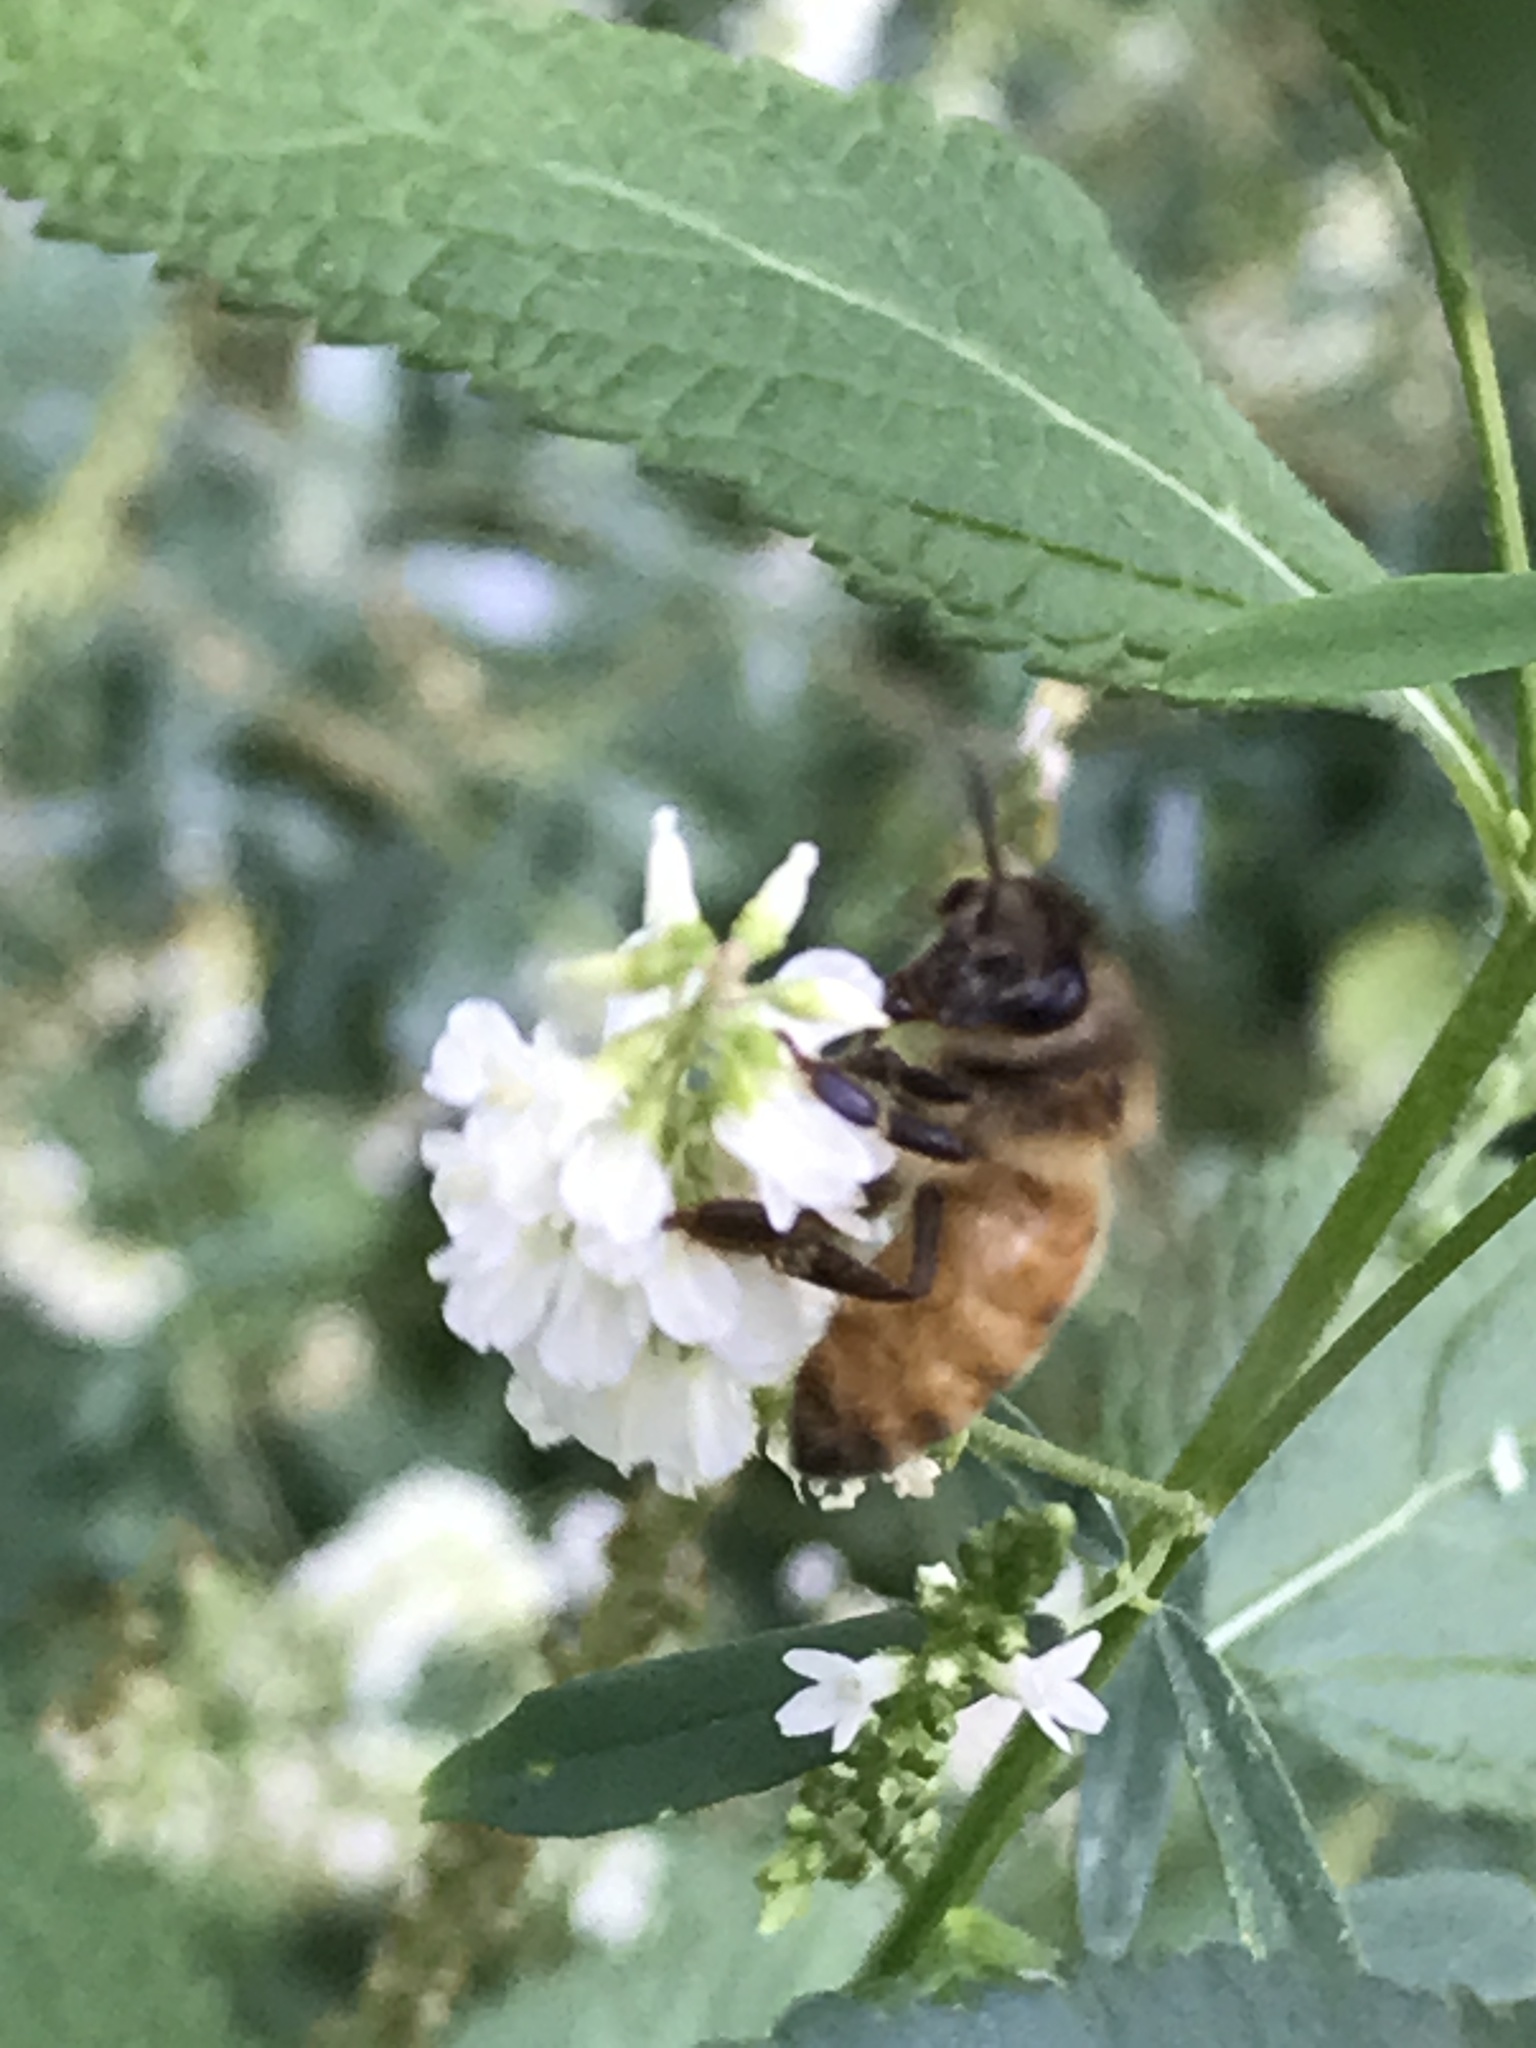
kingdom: Animalia
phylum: Arthropoda
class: Insecta
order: Hymenoptera
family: Apidae
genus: Apis
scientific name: Apis mellifera
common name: Honey bee
